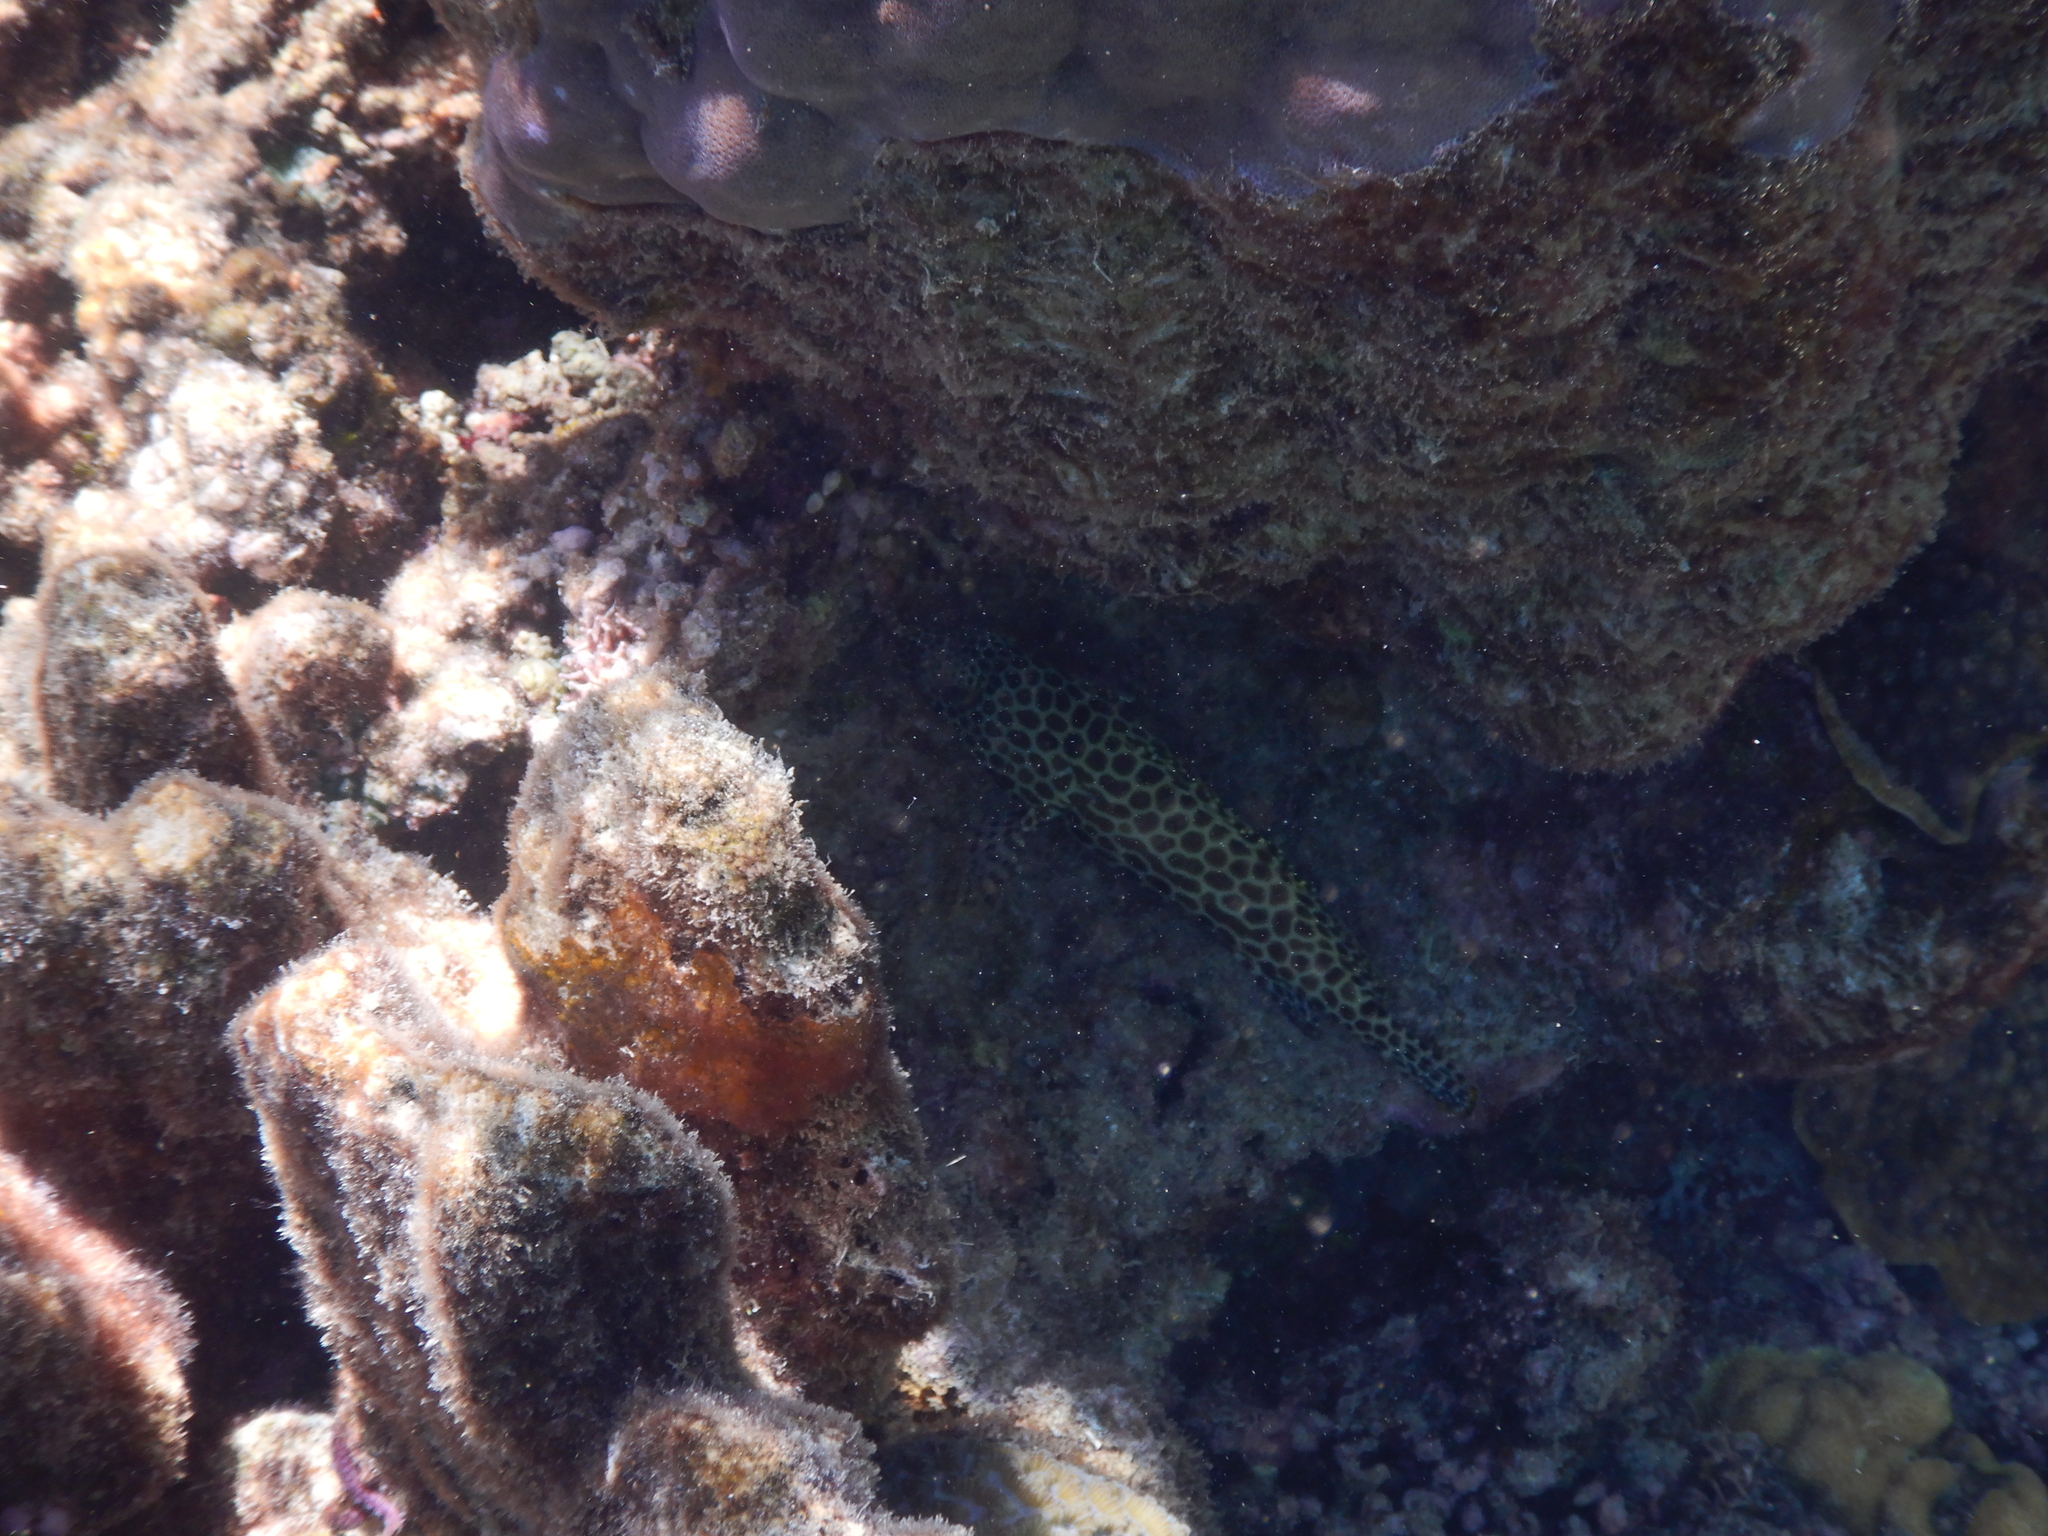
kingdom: Animalia
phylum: Chordata
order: Perciformes
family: Serranidae
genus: Epinephelus
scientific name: Epinephelus merra
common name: Honeycomb grouper
